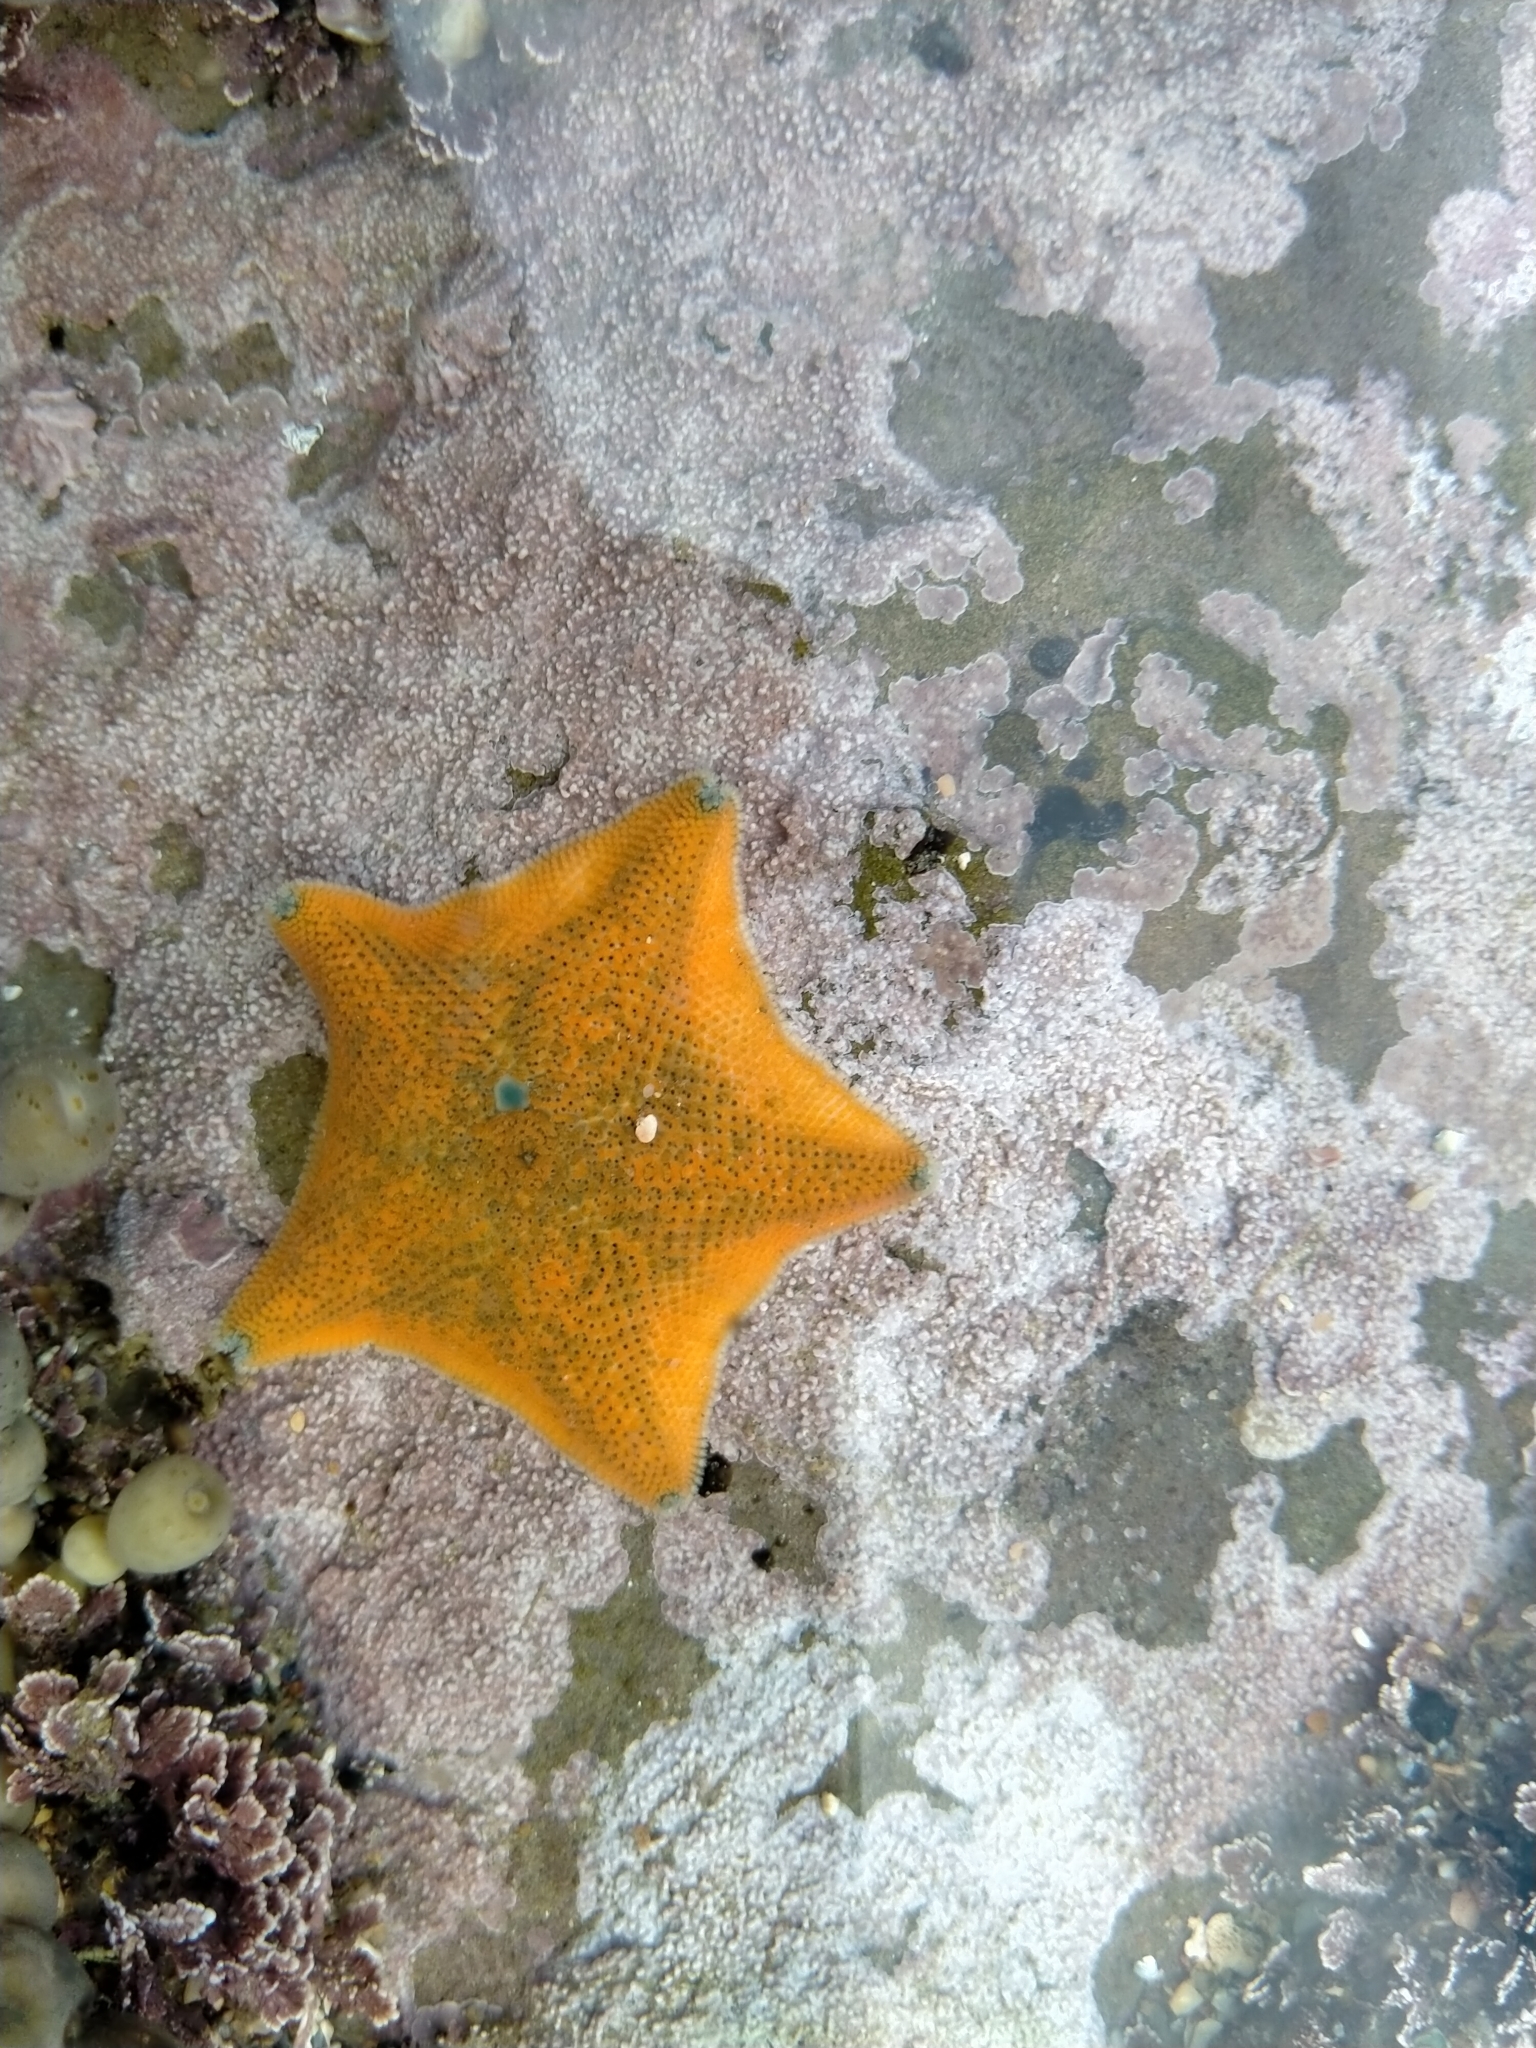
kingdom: Animalia
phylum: Echinodermata
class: Asteroidea
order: Valvatida
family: Asterinidae
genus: Patiriella
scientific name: Patiriella regularis
